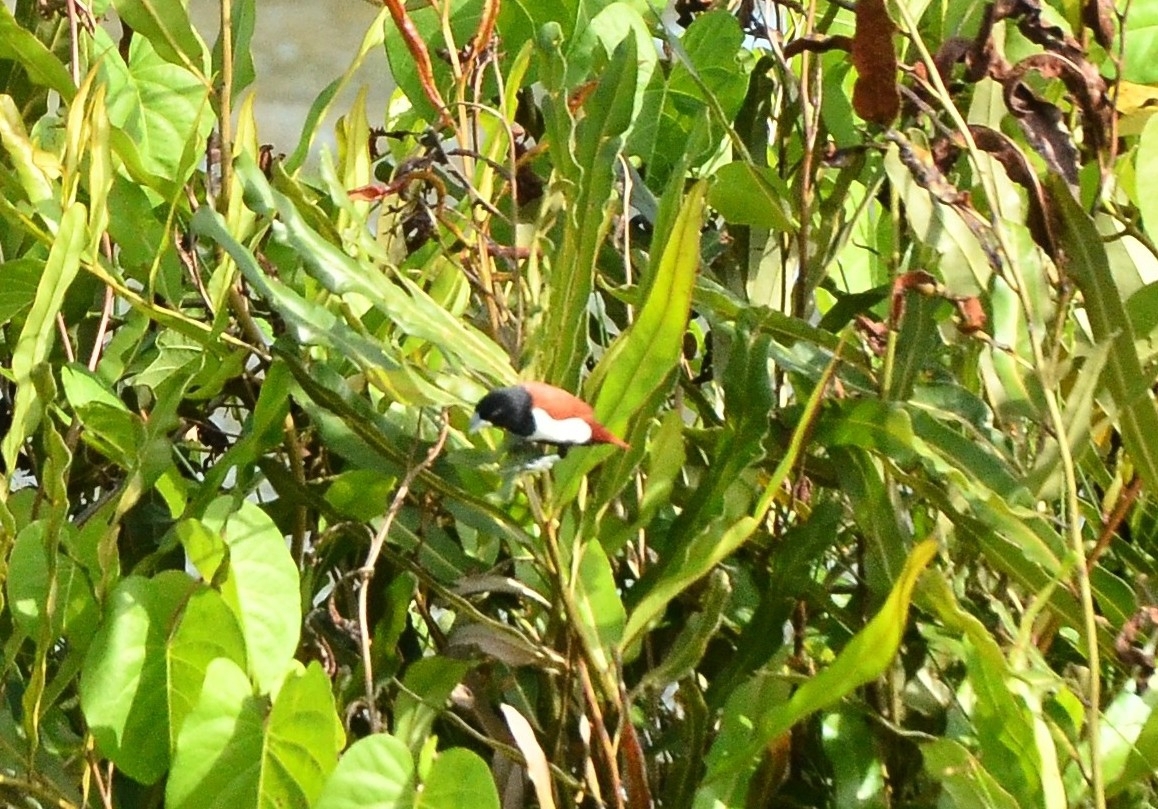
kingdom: Animalia
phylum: Chordata
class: Aves
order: Passeriformes
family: Estrildidae
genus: Lonchura
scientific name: Lonchura malacca
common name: Tricolored munia
